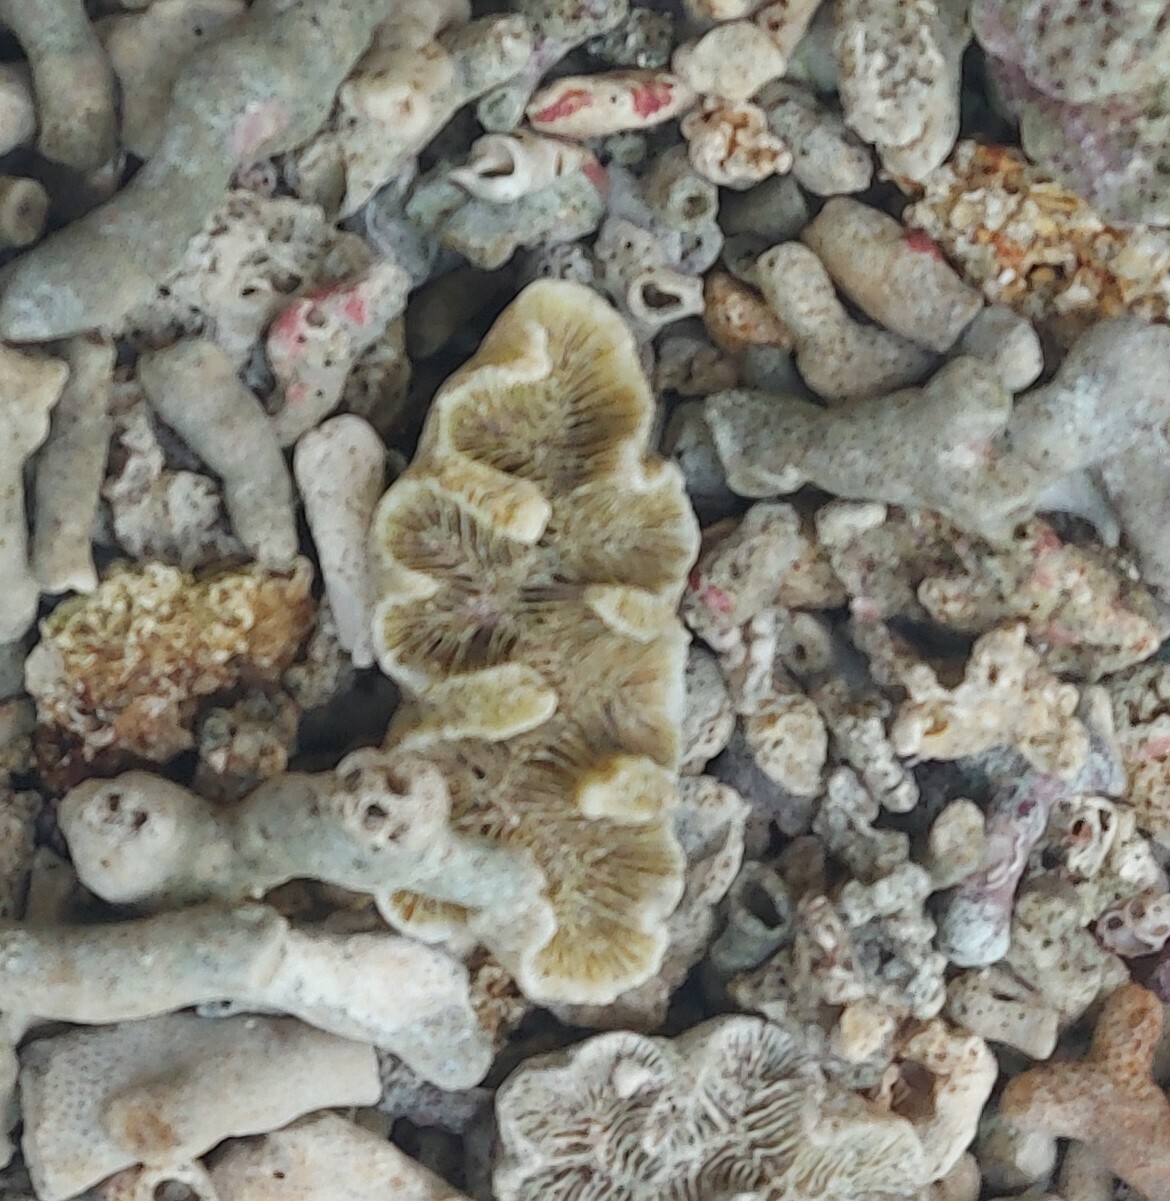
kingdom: Animalia
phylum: Cnidaria
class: Anthozoa
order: Scleractinia
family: Faviidae
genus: Manicina
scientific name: Manicina areolata
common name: Rose coral
